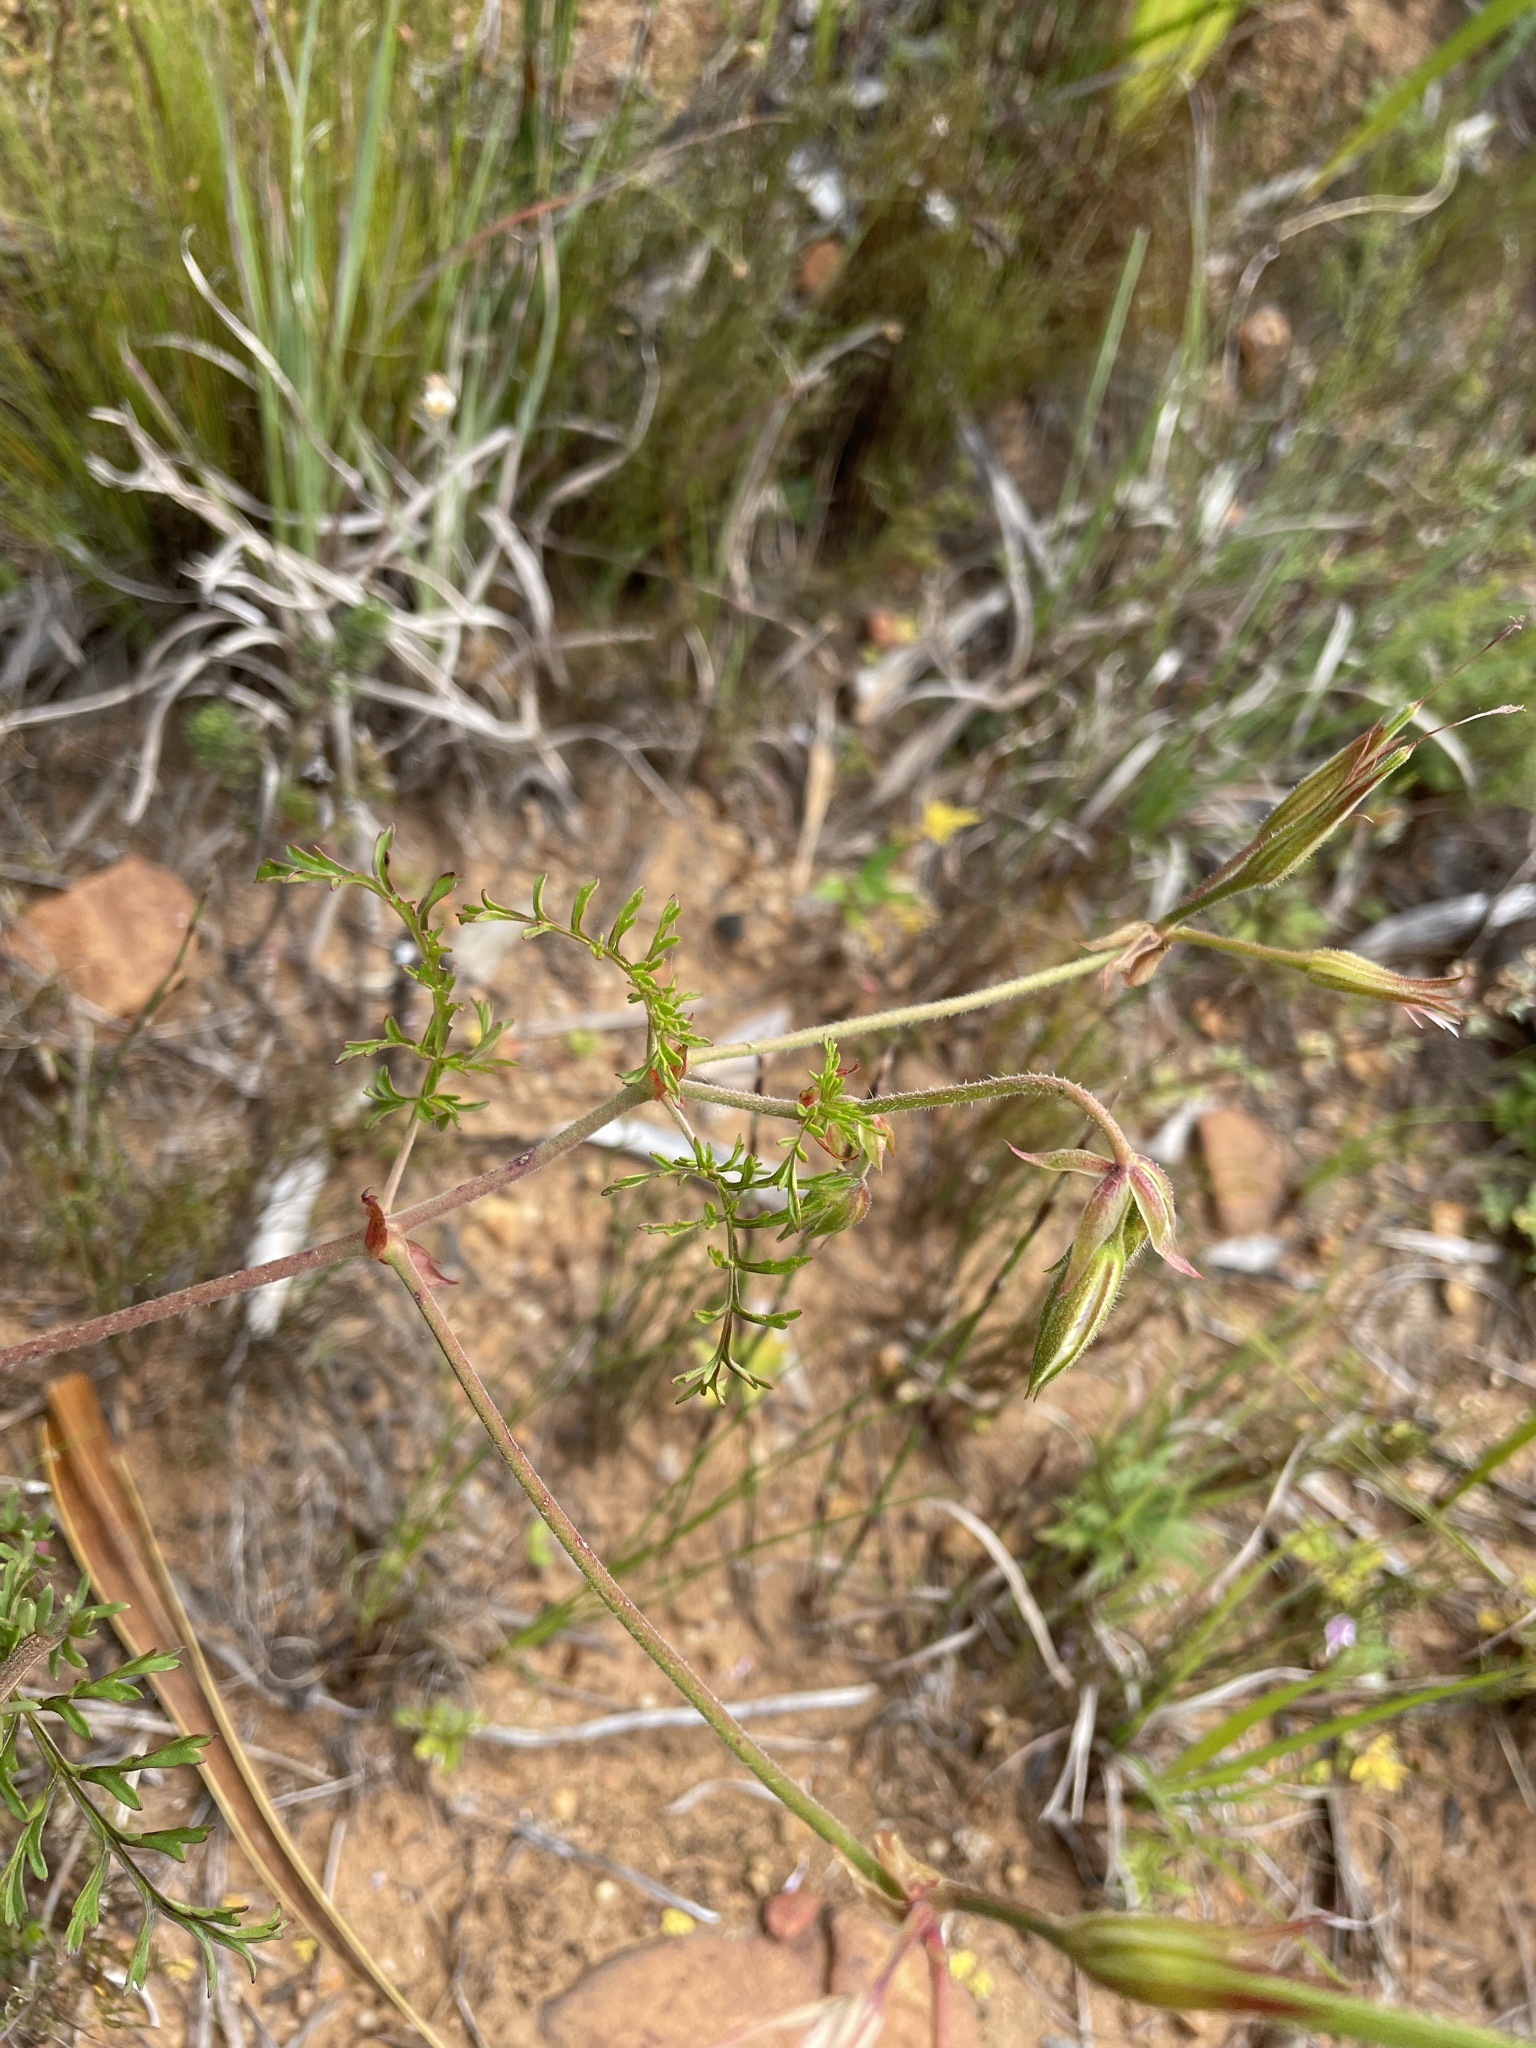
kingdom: Plantae
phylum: Tracheophyta
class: Magnoliopsida
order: Geraniales
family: Geraniaceae
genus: Pelargonium
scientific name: Pelargonium myrrhifolium
